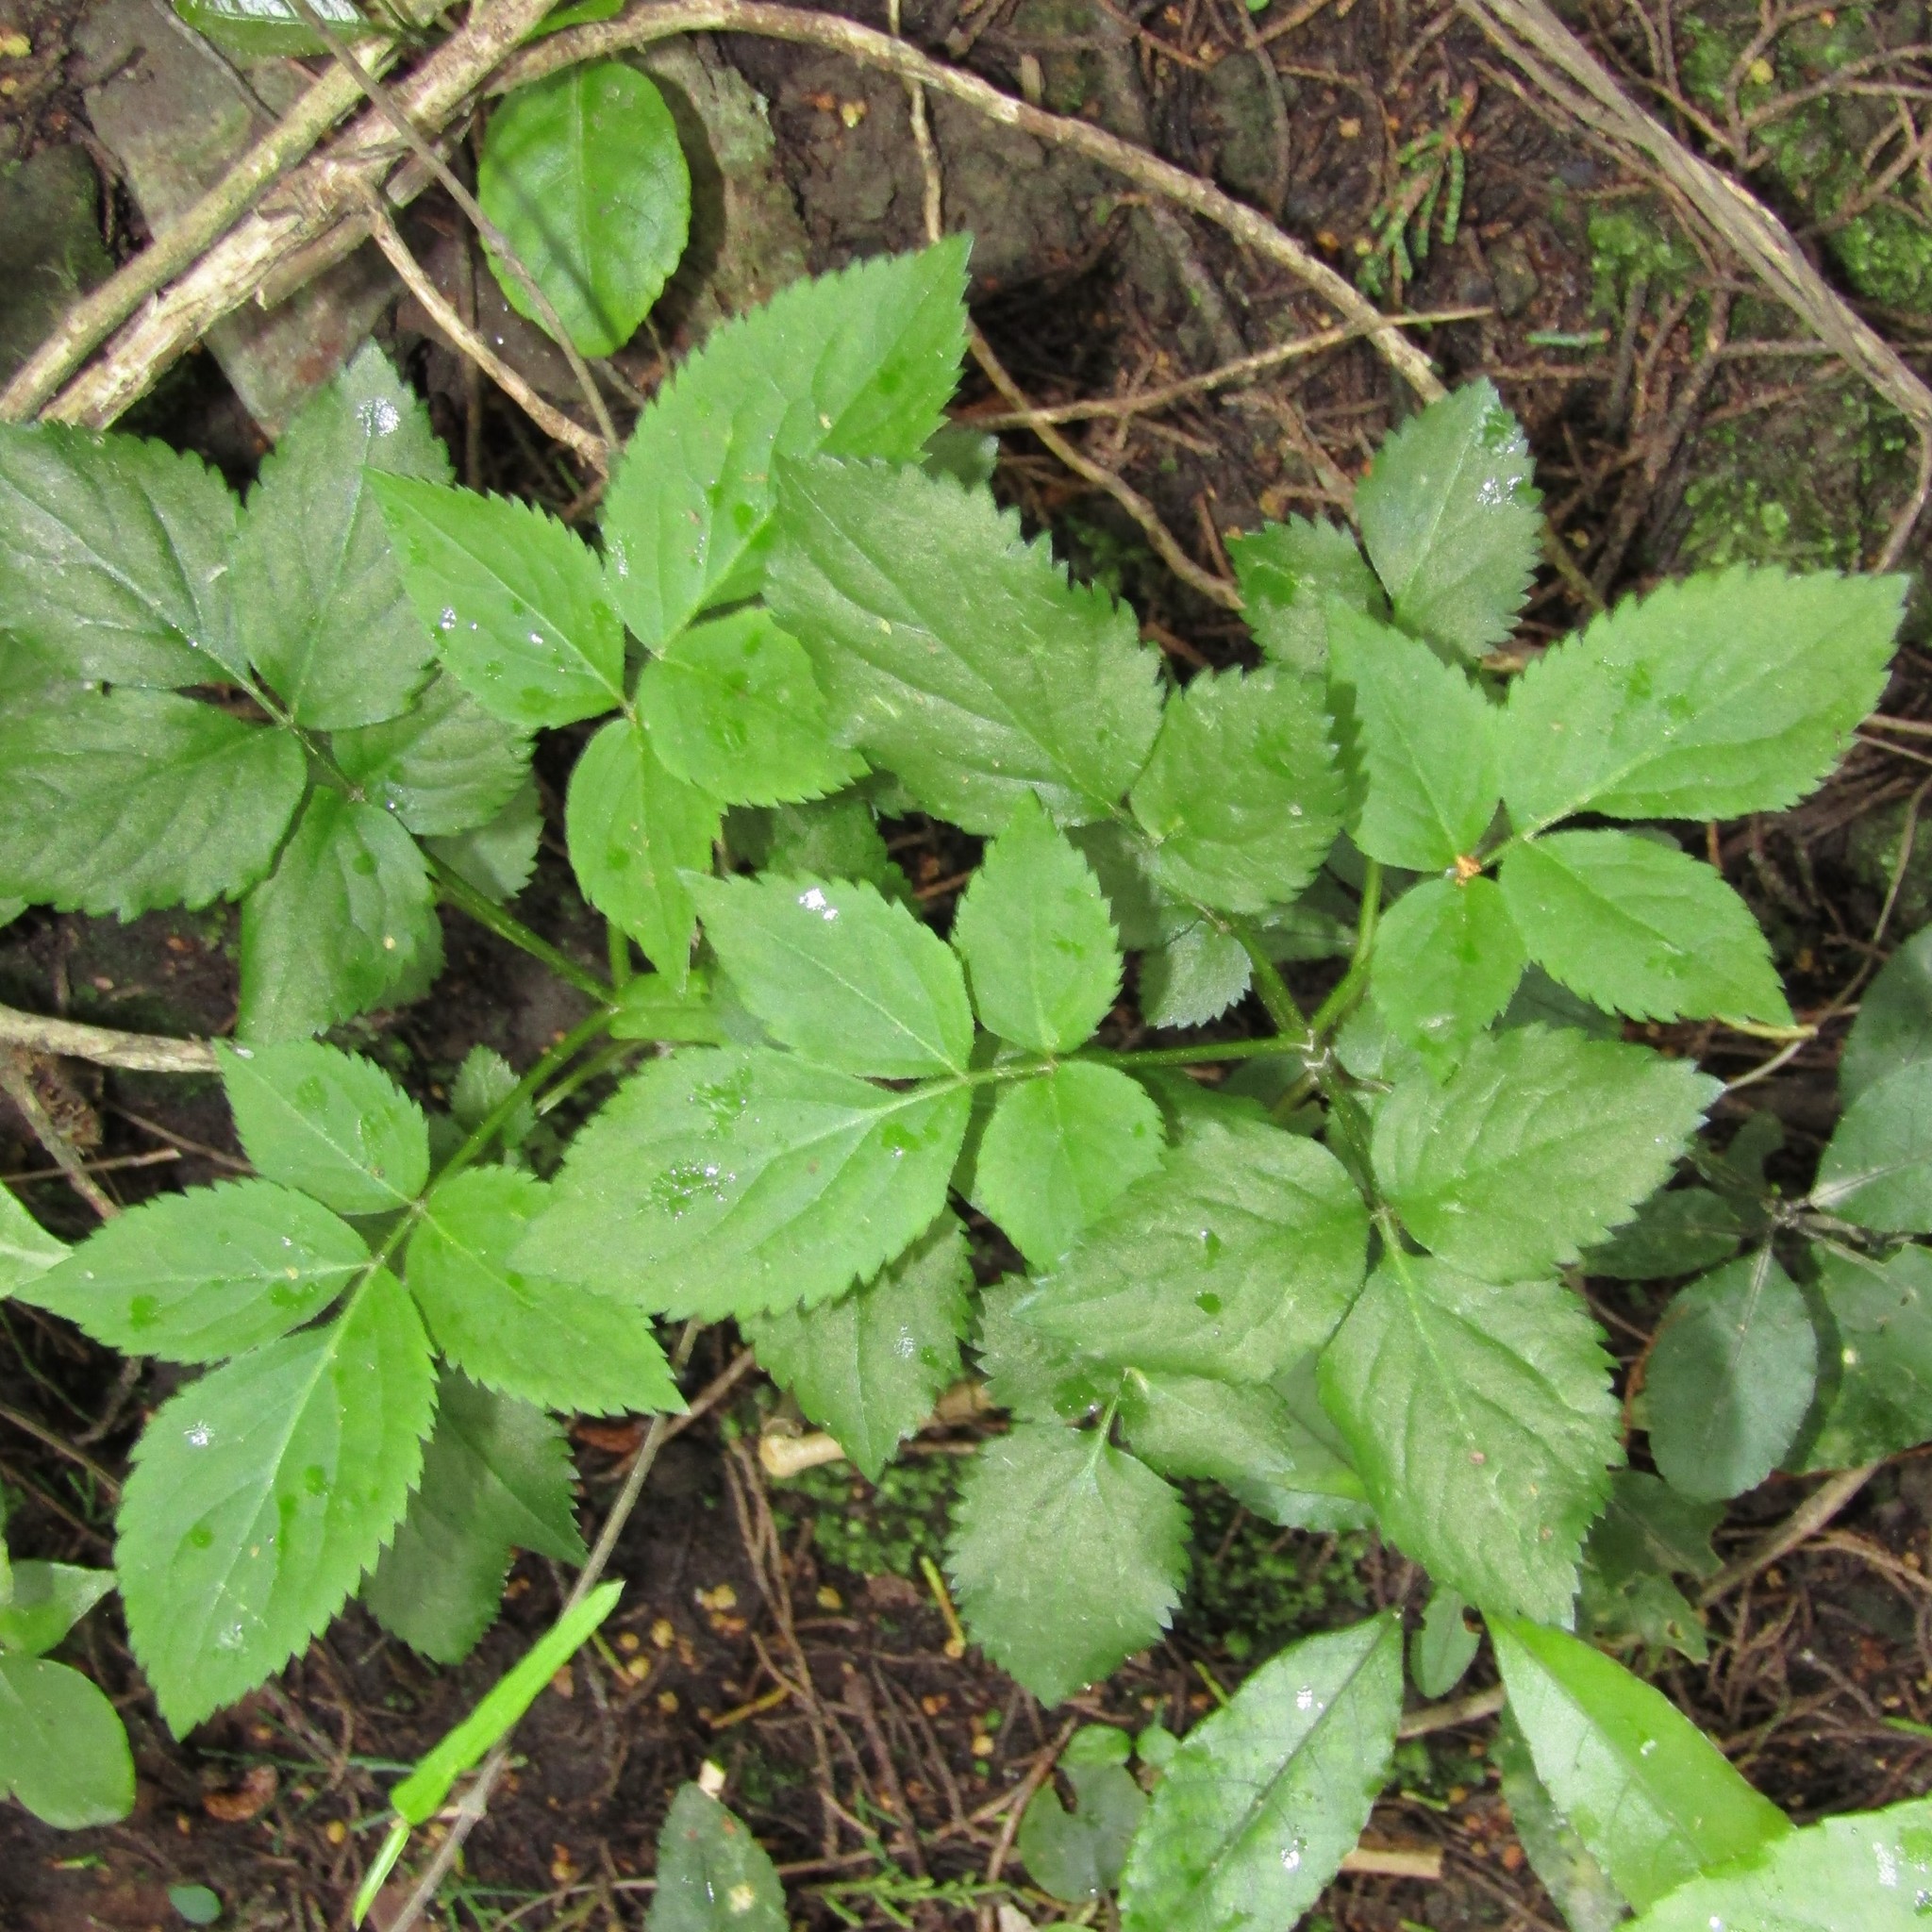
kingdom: Plantae
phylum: Tracheophyta
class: Magnoliopsida
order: Dipsacales
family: Viburnaceae
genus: Sambucus
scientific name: Sambucus nigra
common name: Elder
